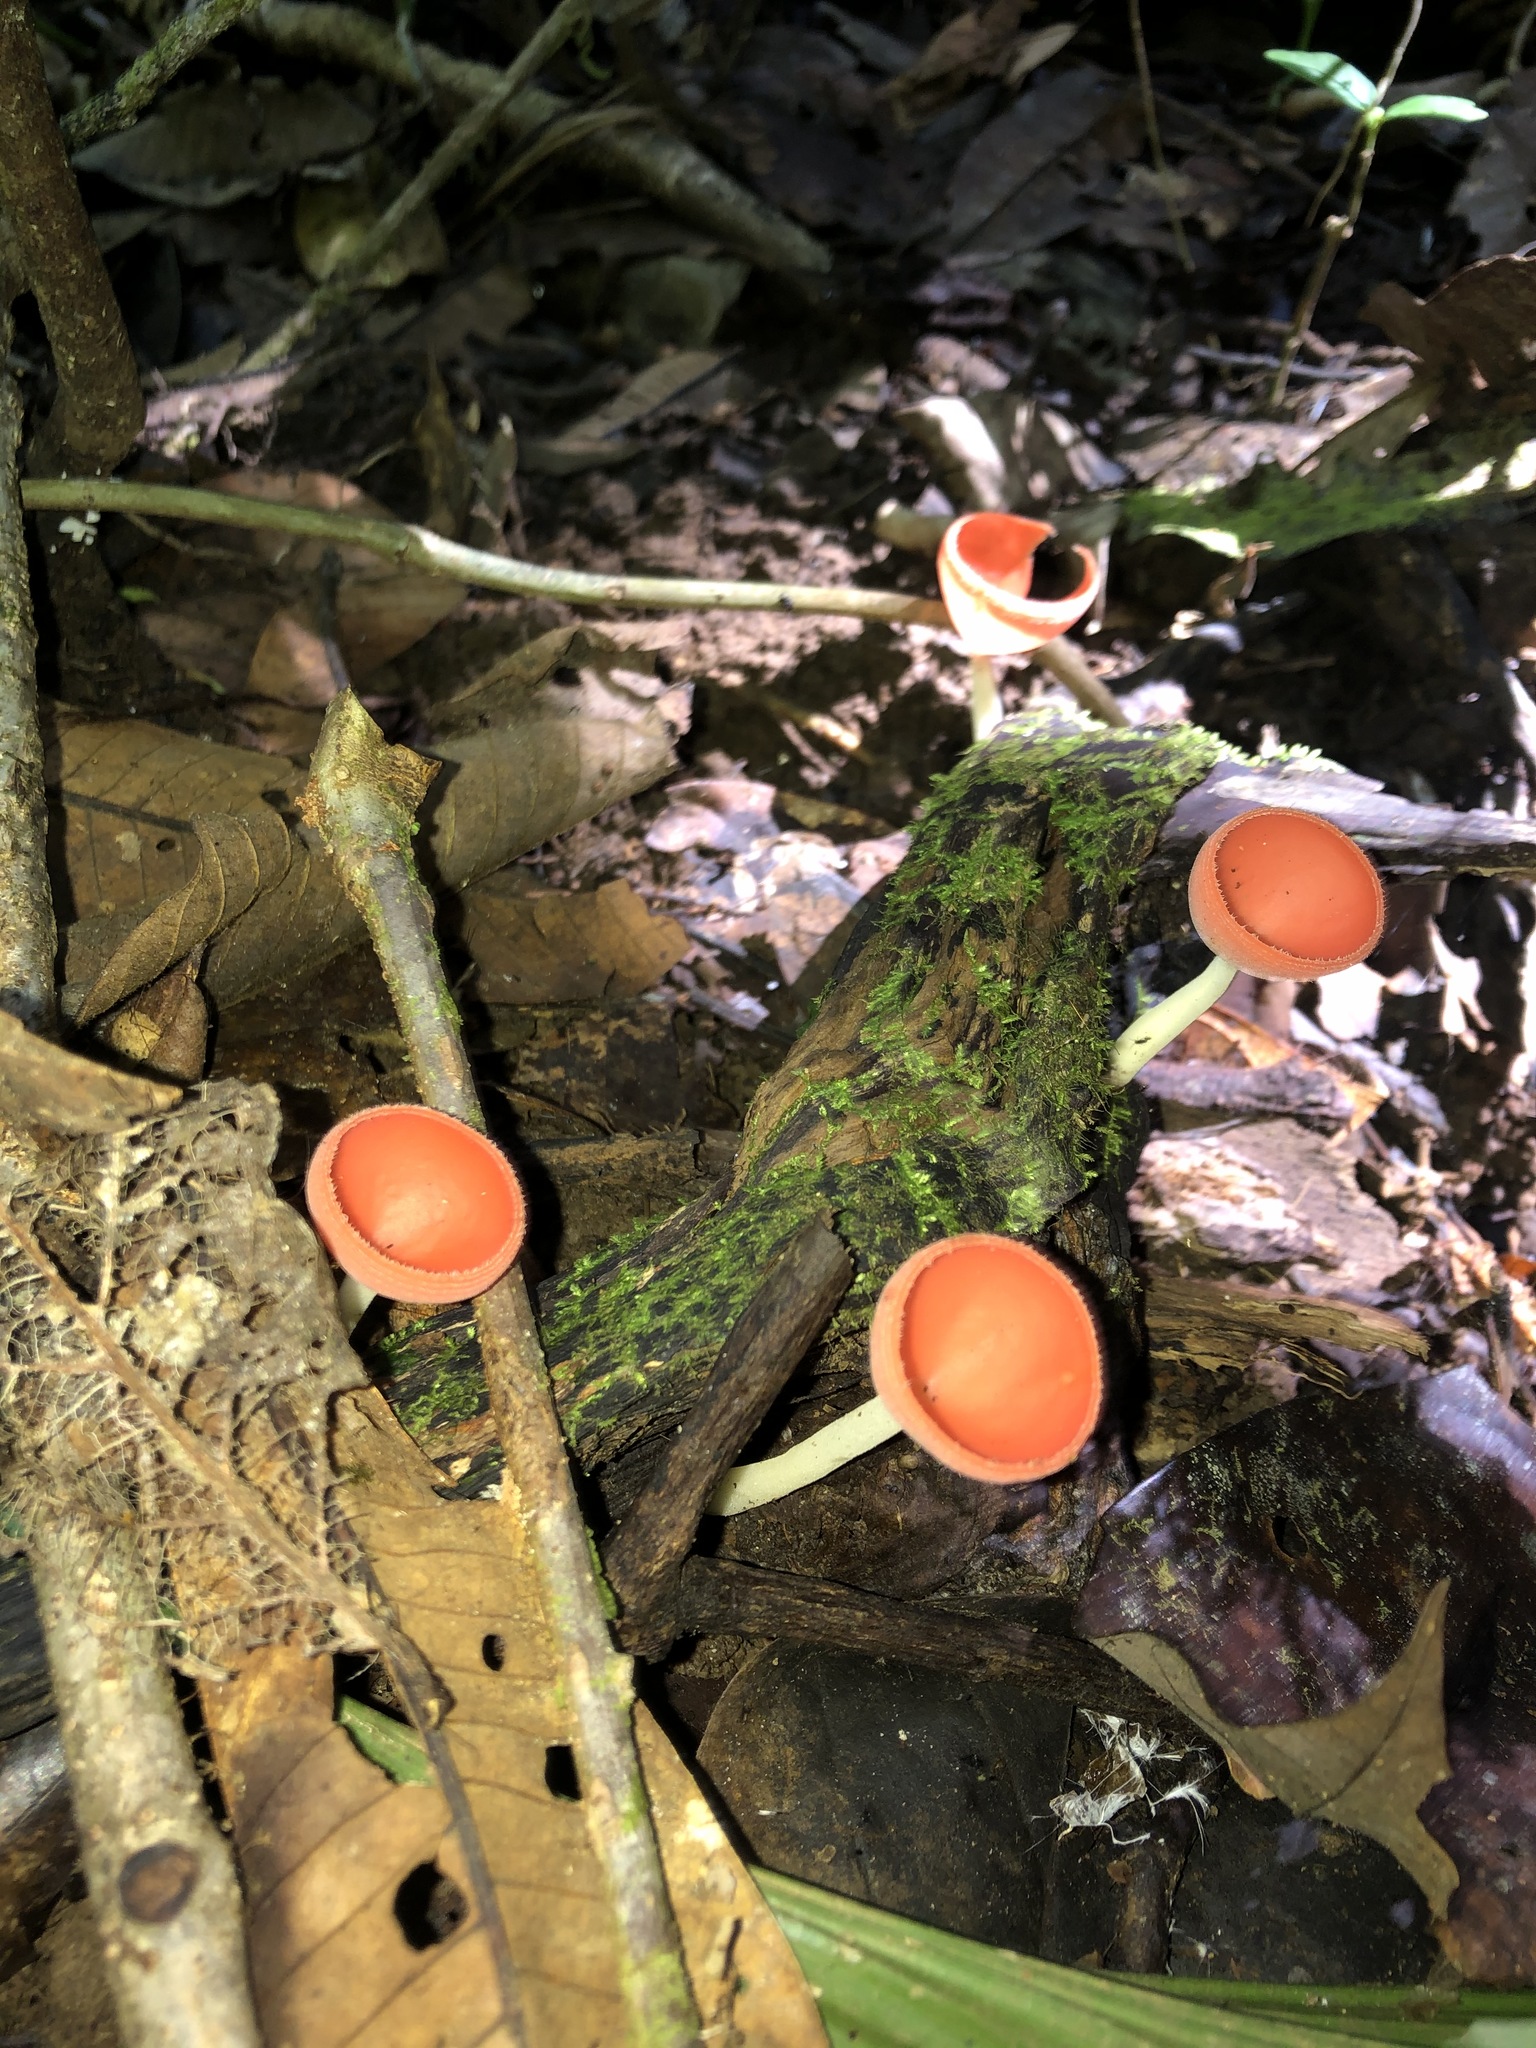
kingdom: Fungi
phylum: Ascomycota
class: Pezizomycetes
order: Pezizales
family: Sarcoscyphaceae
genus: Cookeina
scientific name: Cookeina speciosa
